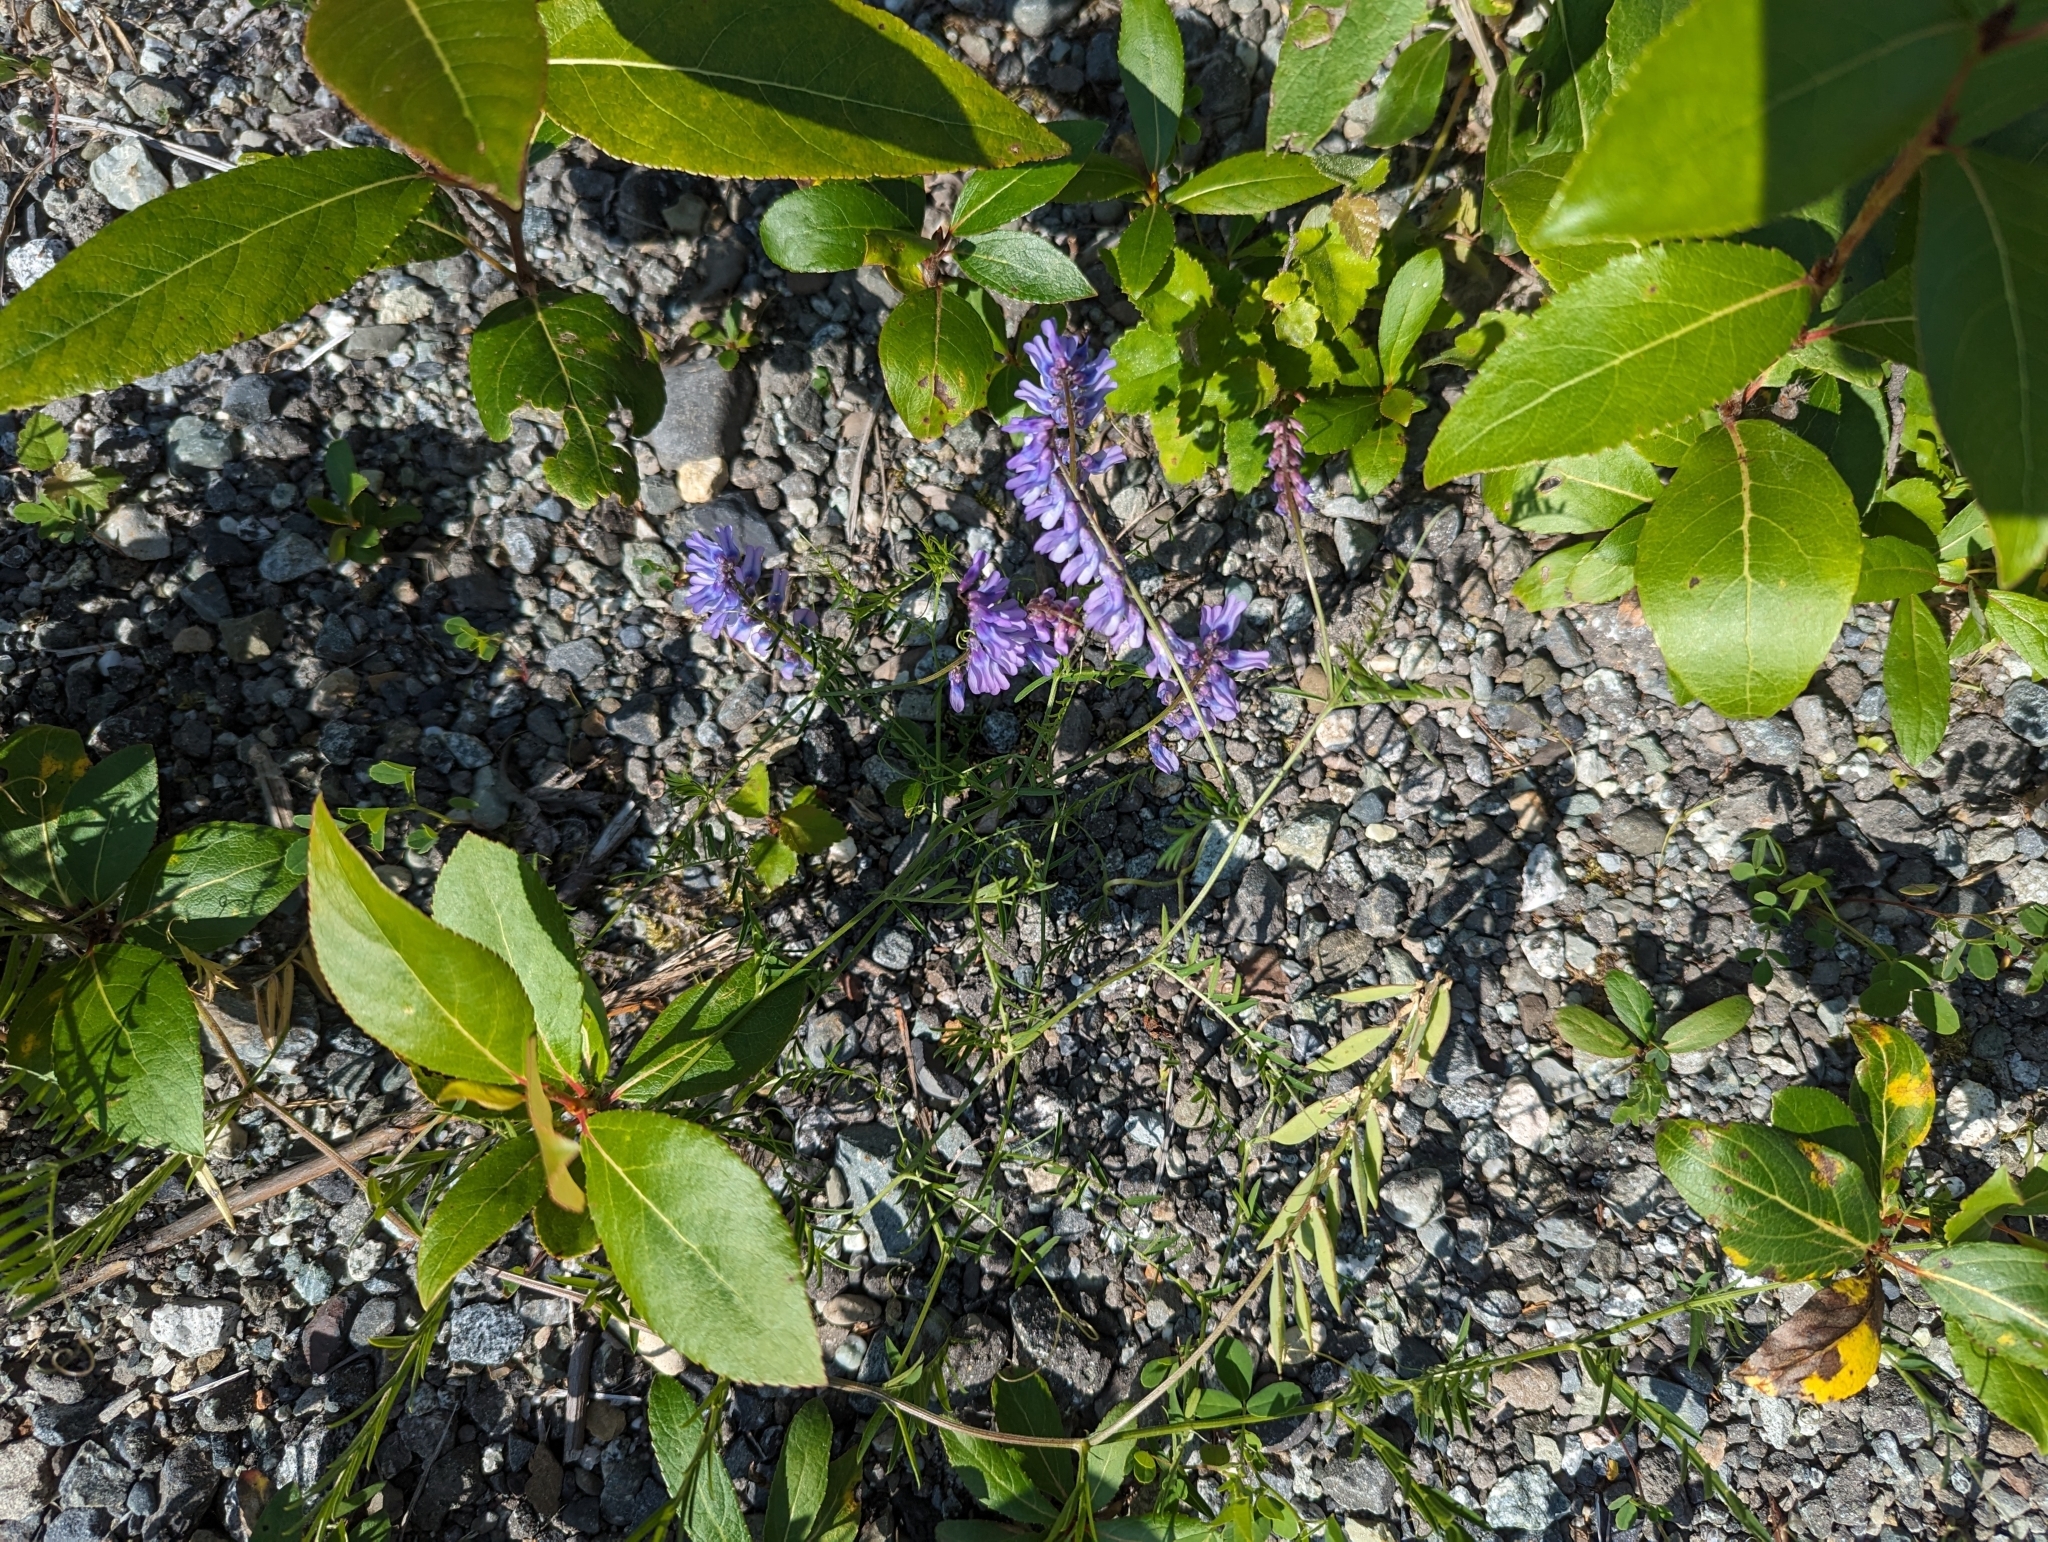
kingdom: Plantae
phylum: Tracheophyta
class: Magnoliopsida
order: Fabales
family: Fabaceae
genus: Vicia
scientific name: Vicia cracca
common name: Bird vetch
